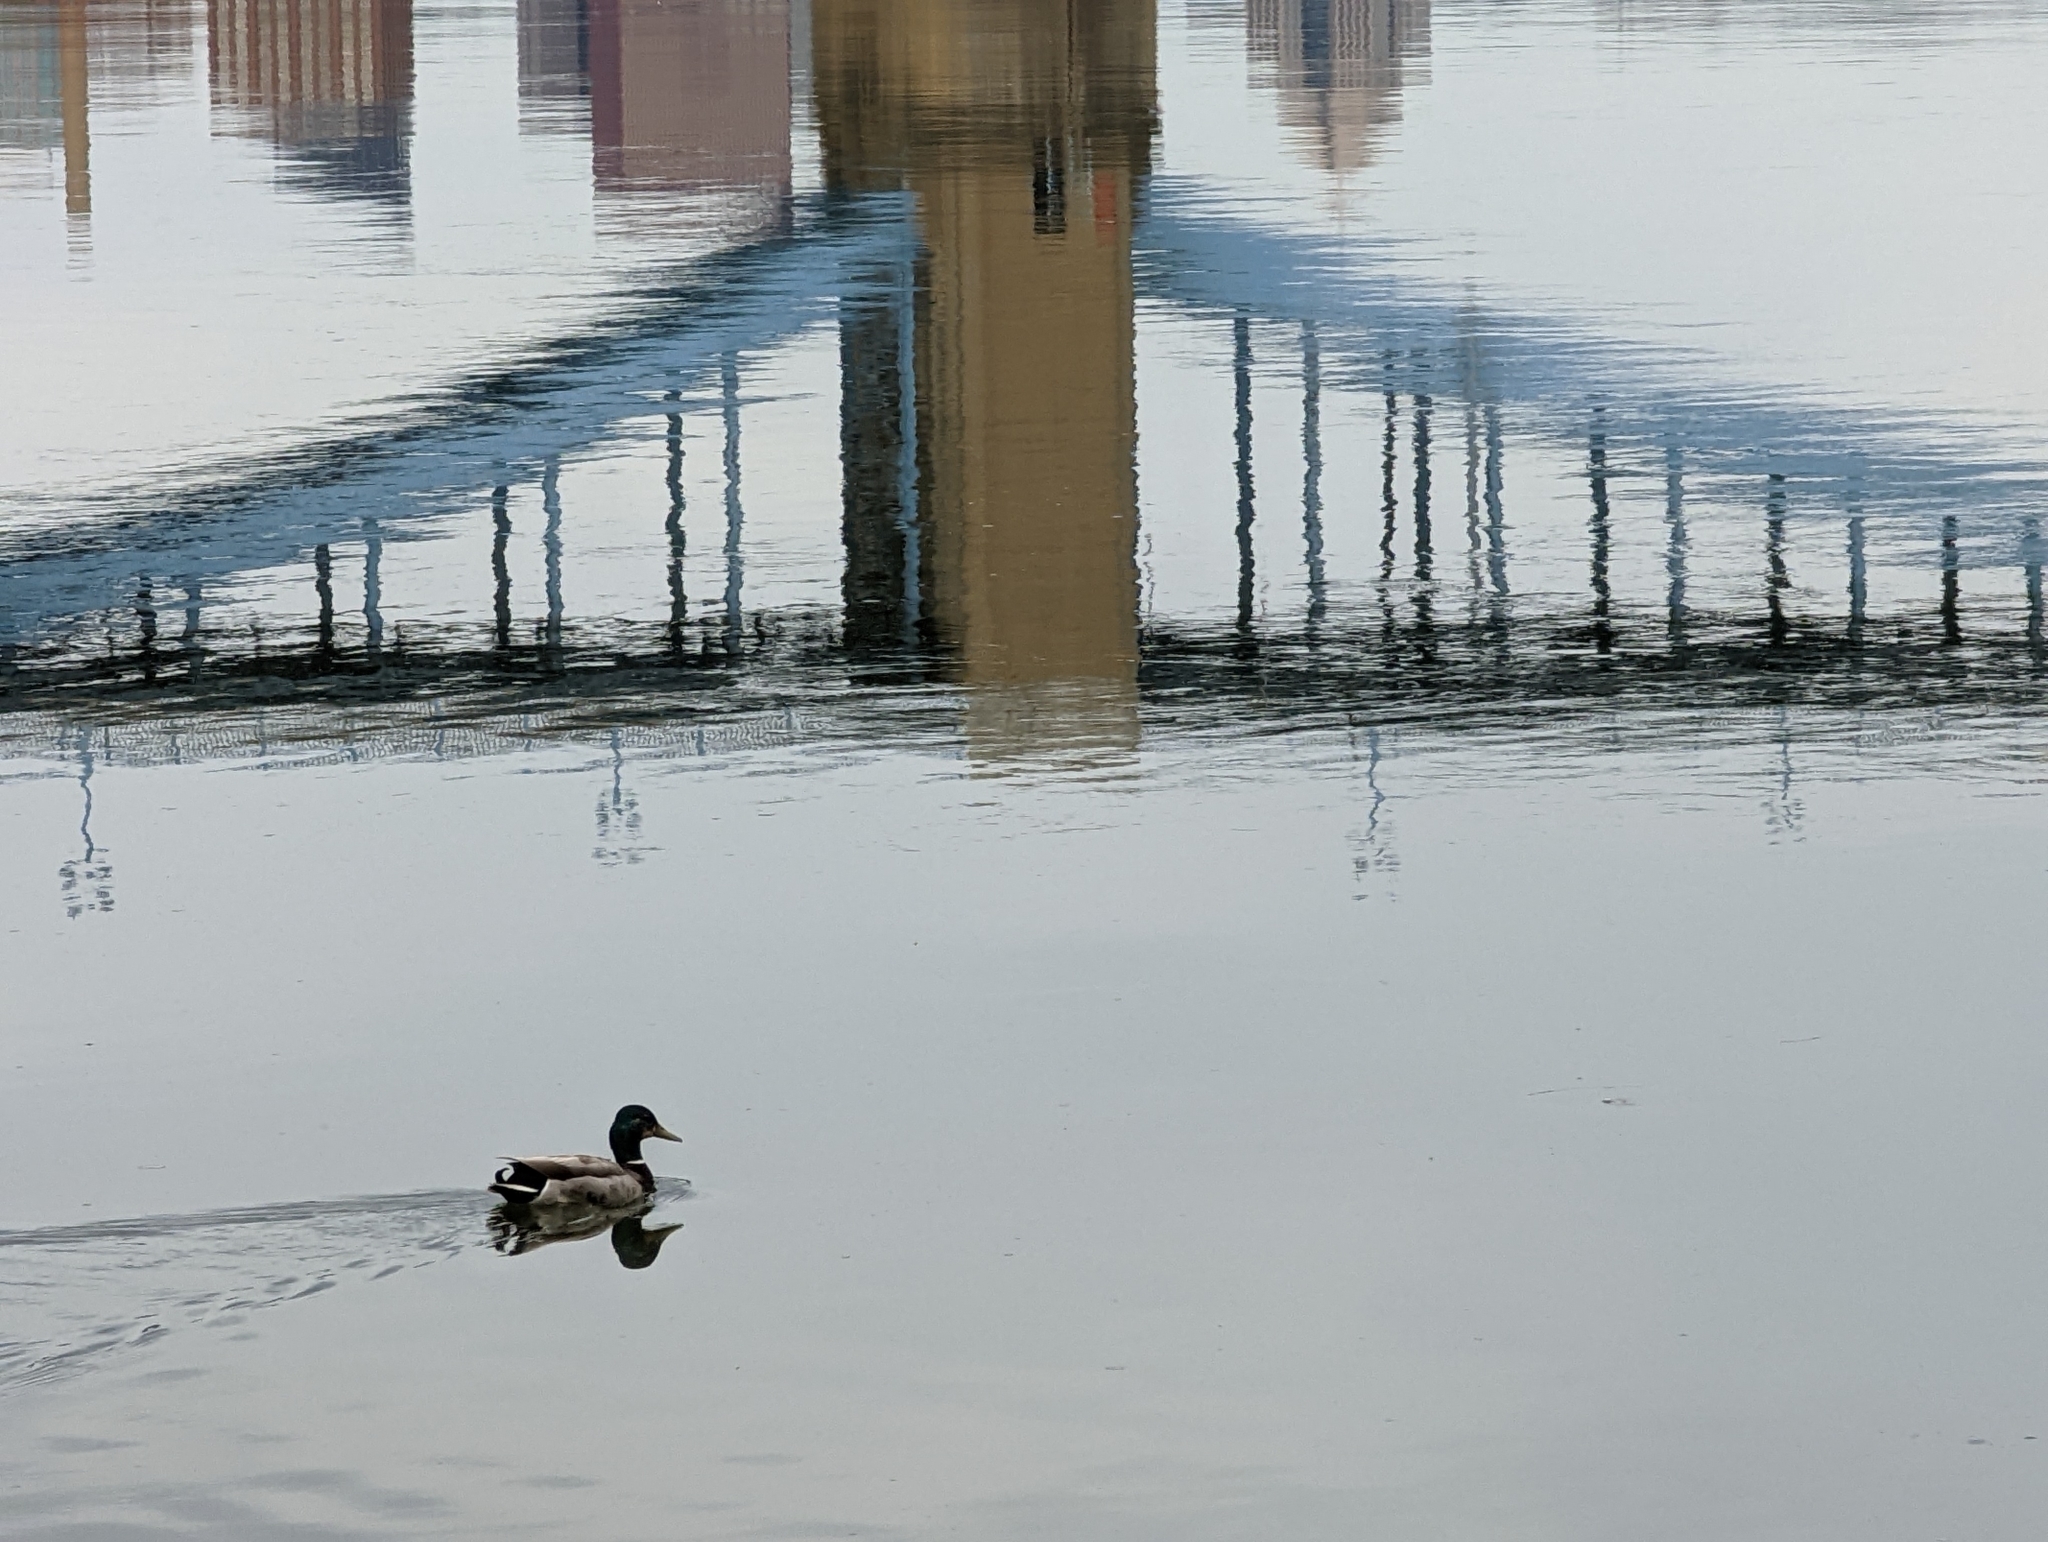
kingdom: Animalia
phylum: Chordata
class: Aves
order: Anseriformes
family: Anatidae
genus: Anas
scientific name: Anas platyrhynchos
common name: Mallard
